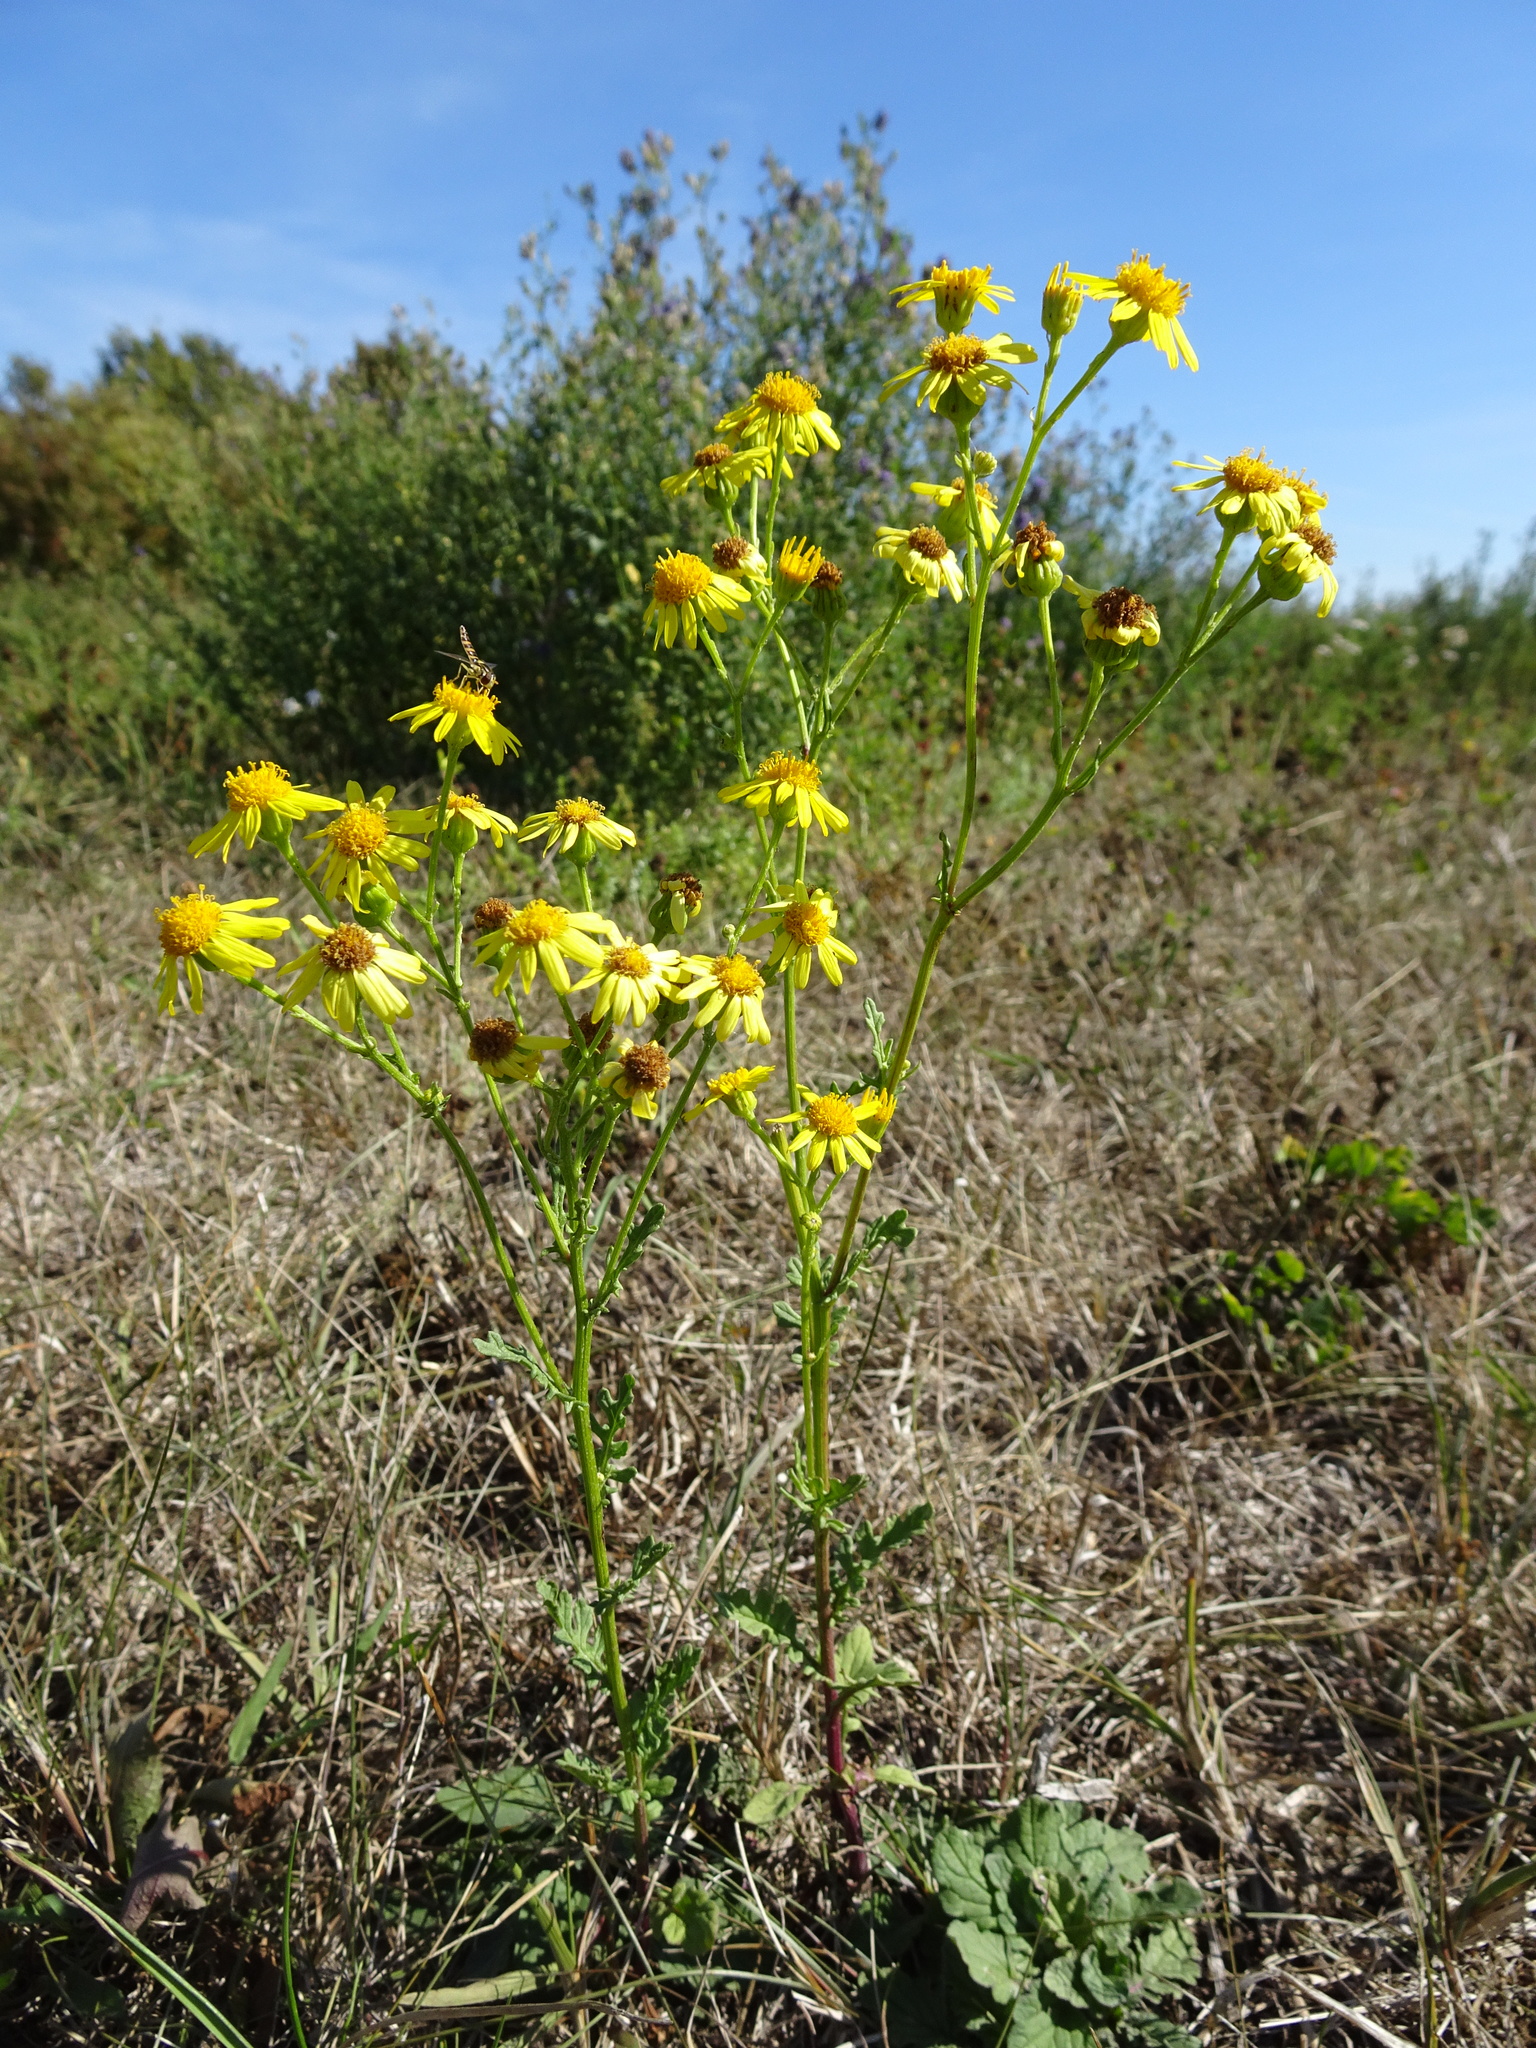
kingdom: Plantae
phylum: Tracheophyta
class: Magnoliopsida
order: Asterales
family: Asteraceae
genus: Jacobaea
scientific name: Jacobaea vulgaris
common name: Stinking willie
